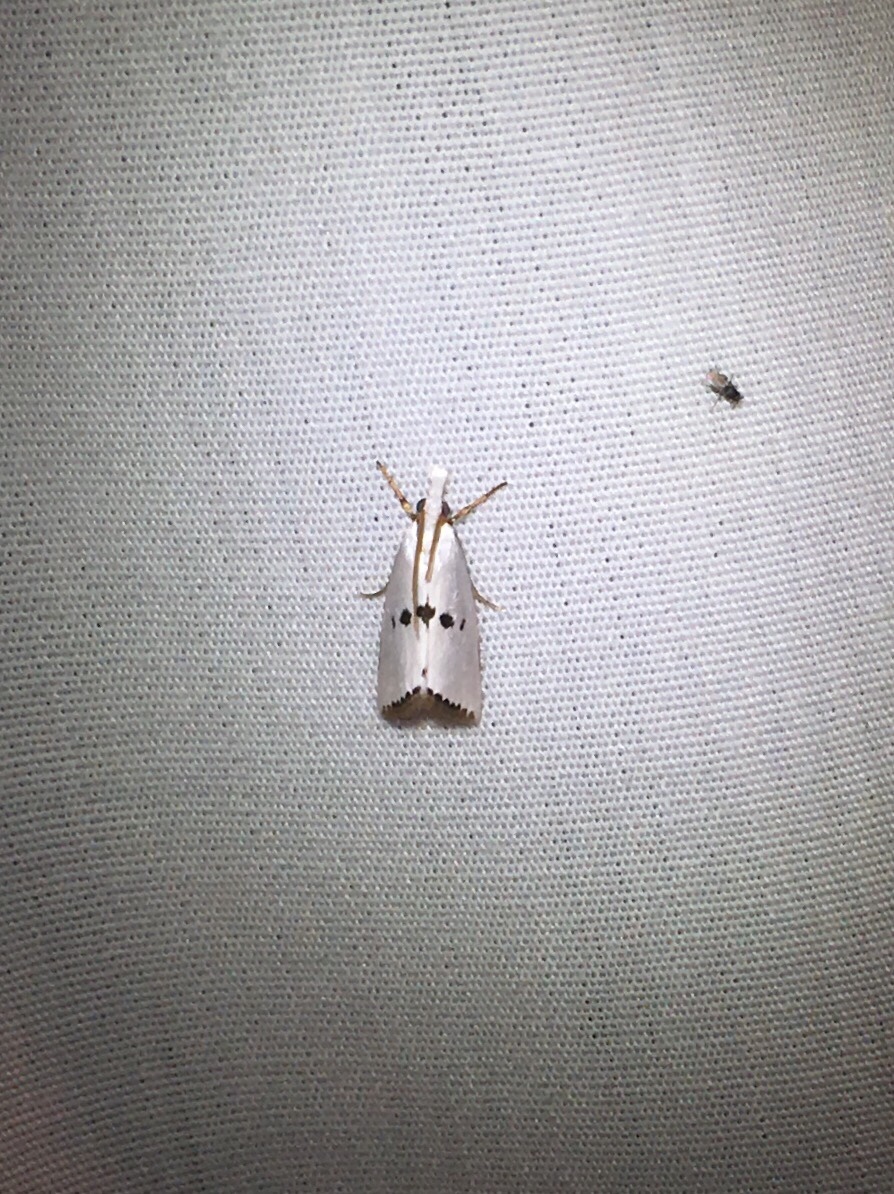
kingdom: Animalia
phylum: Arthropoda
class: Insecta
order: Lepidoptera
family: Crambidae
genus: Crambus
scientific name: Crambus tripsacas
